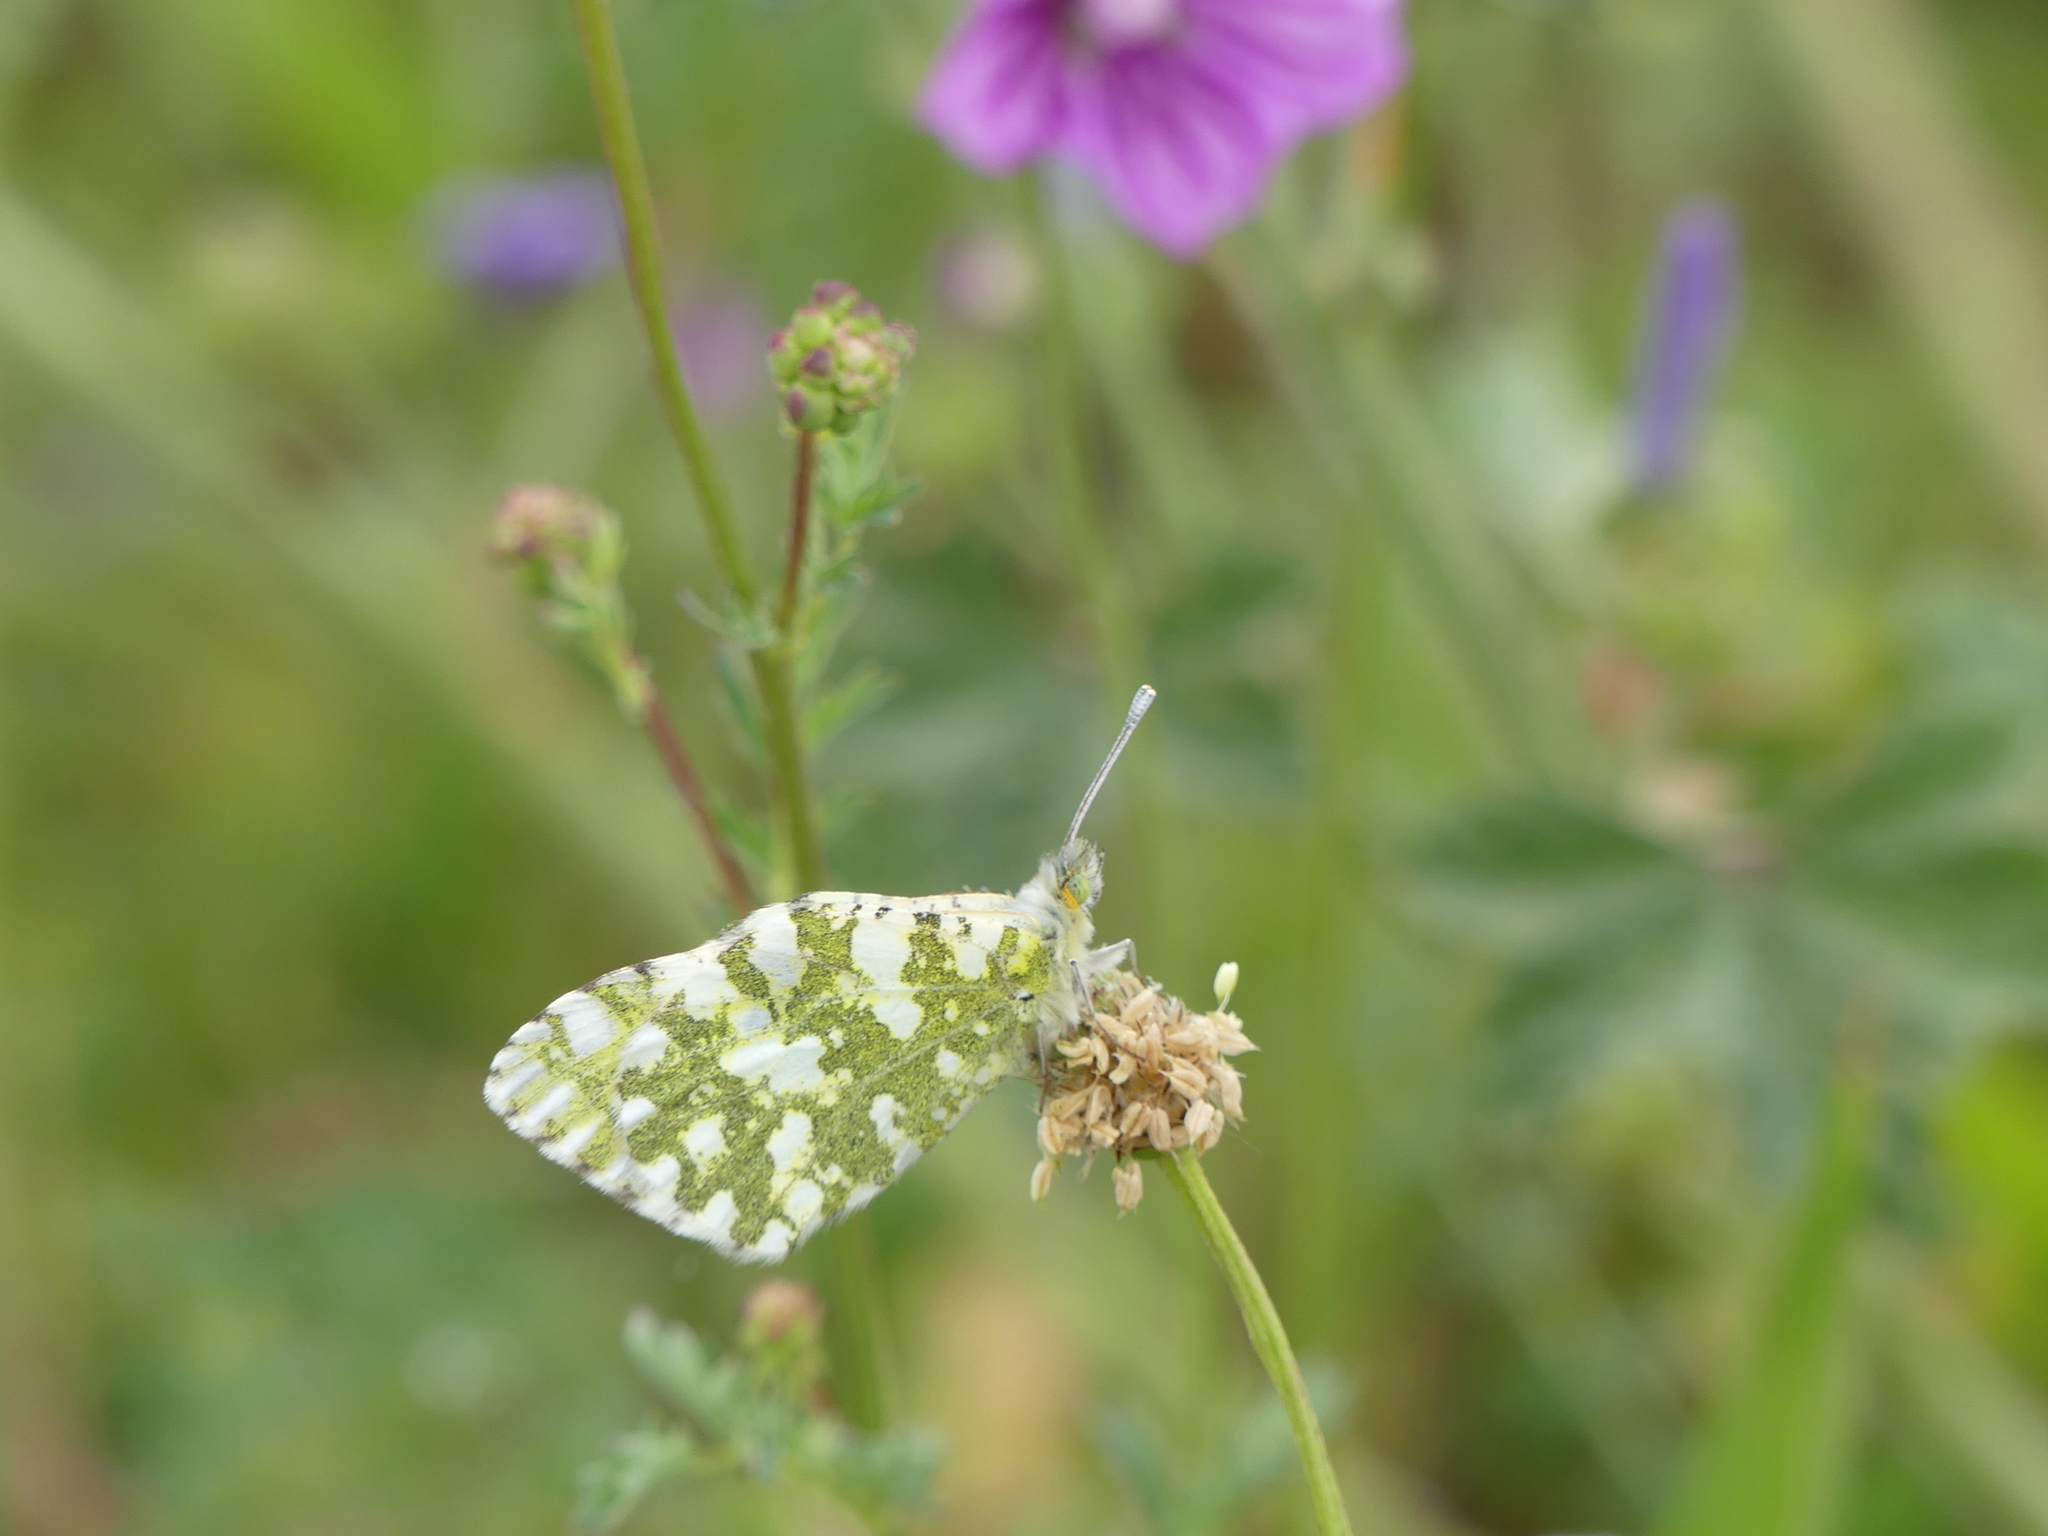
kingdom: Animalia
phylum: Arthropoda
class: Insecta
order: Lepidoptera
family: Pieridae
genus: Euchloe
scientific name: Euchloe crameri
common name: Western dappled white
